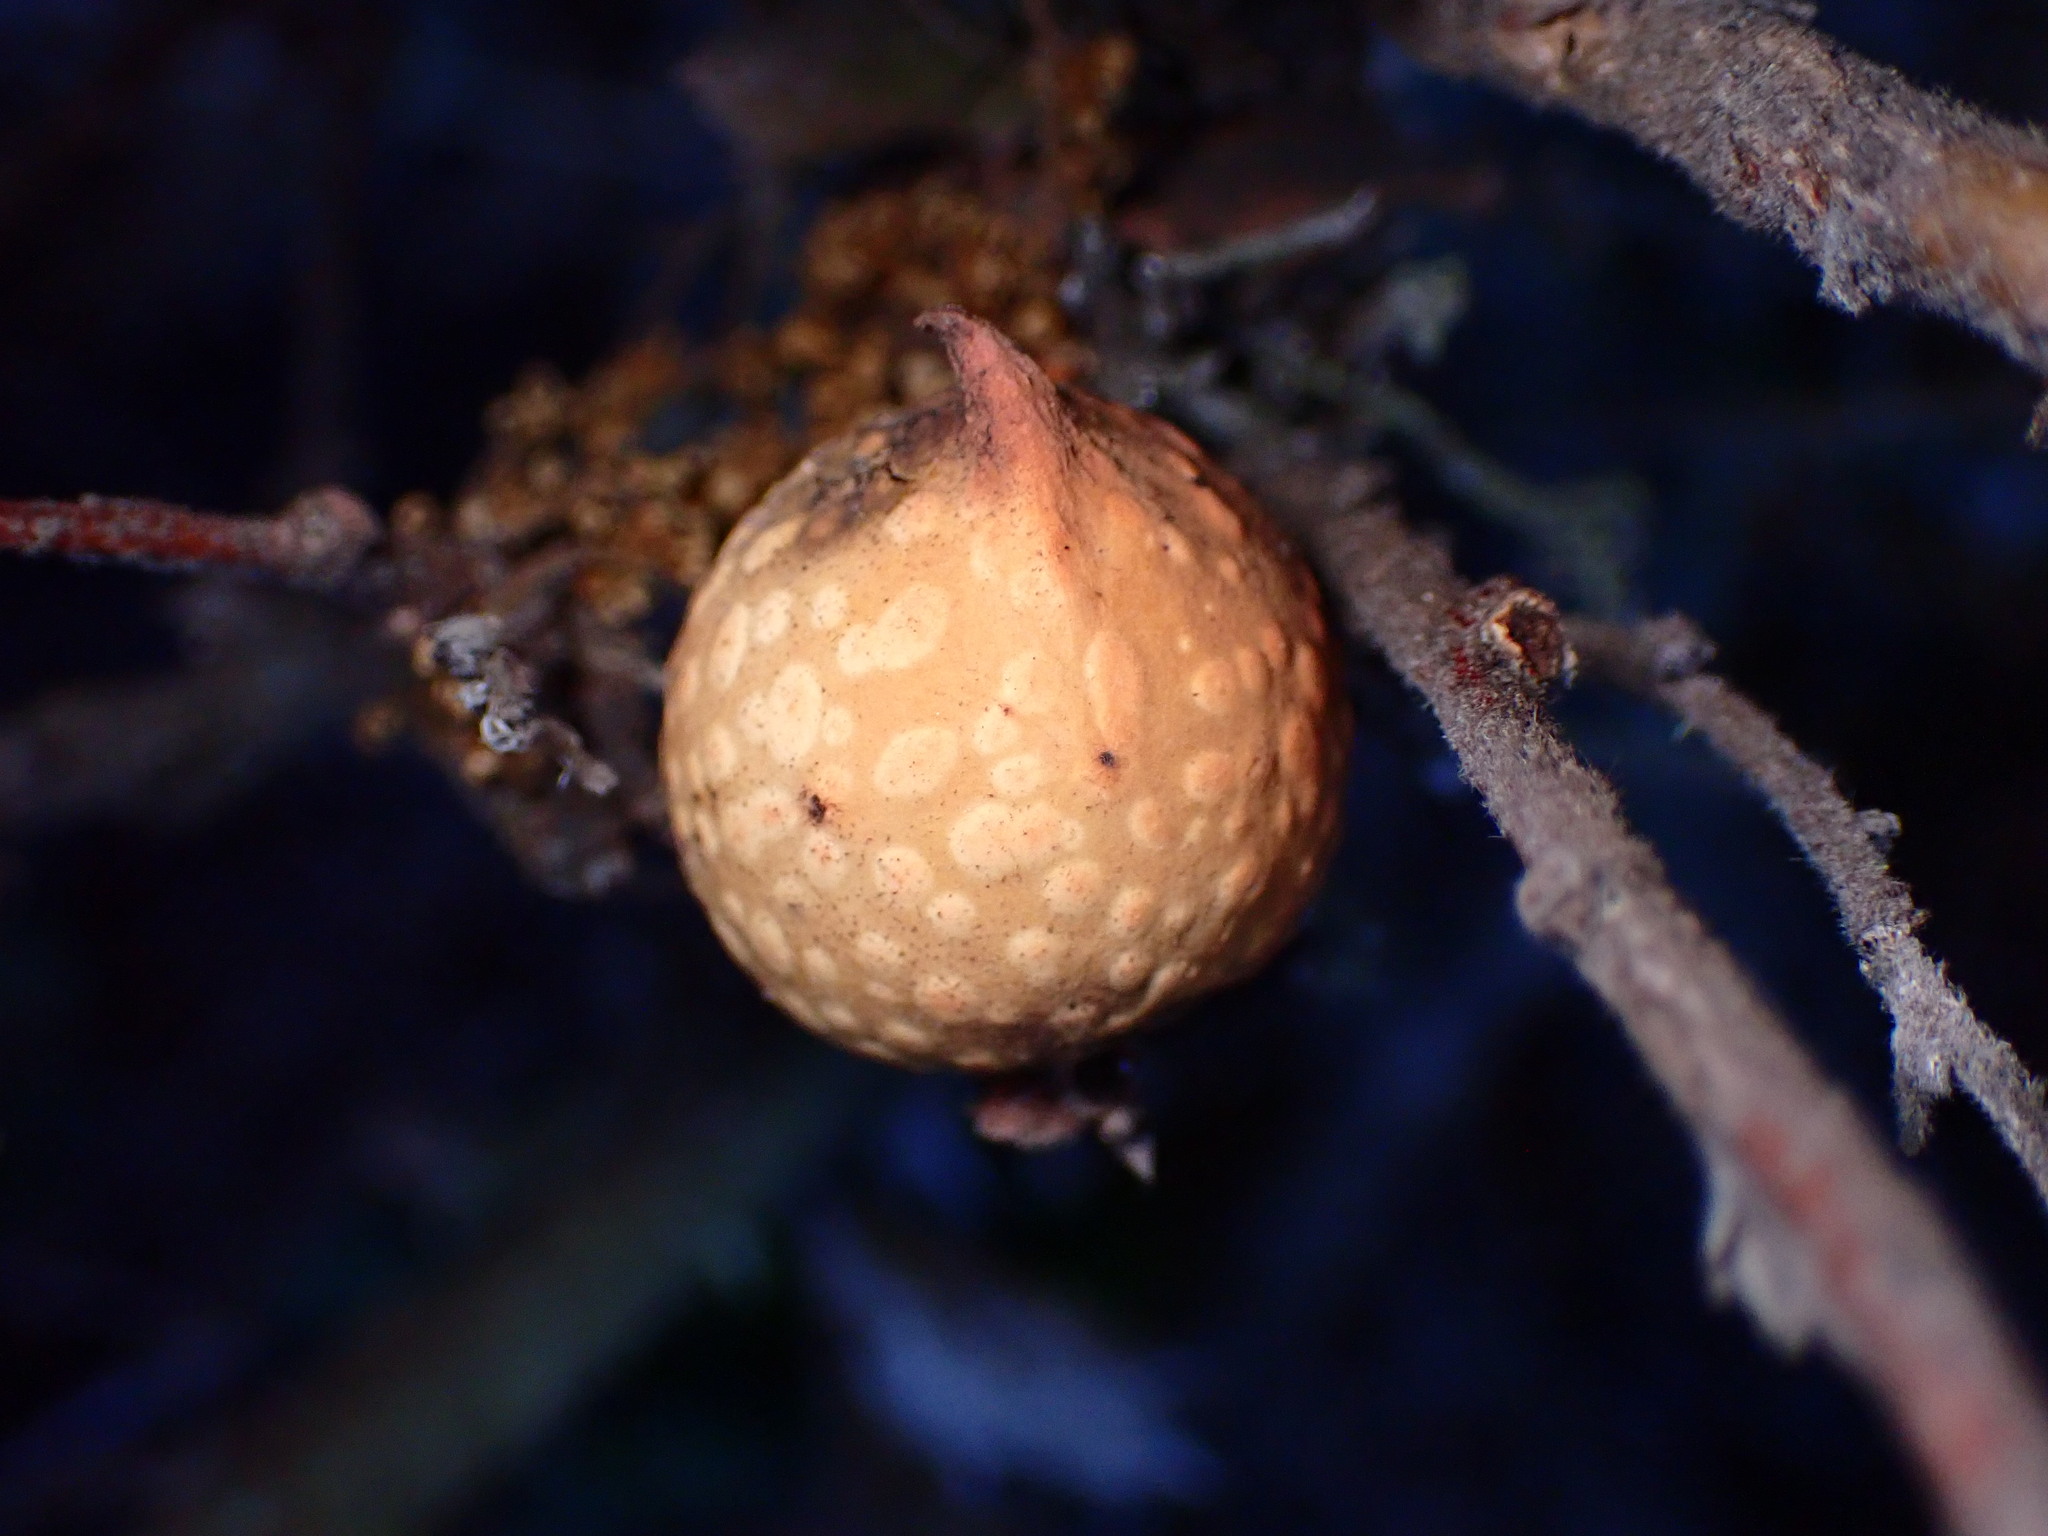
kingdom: Animalia
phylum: Arthropoda
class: Insecta
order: Hymenoptera
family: Cynipidae
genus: Burnettweldia
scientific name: Burnettweldia
